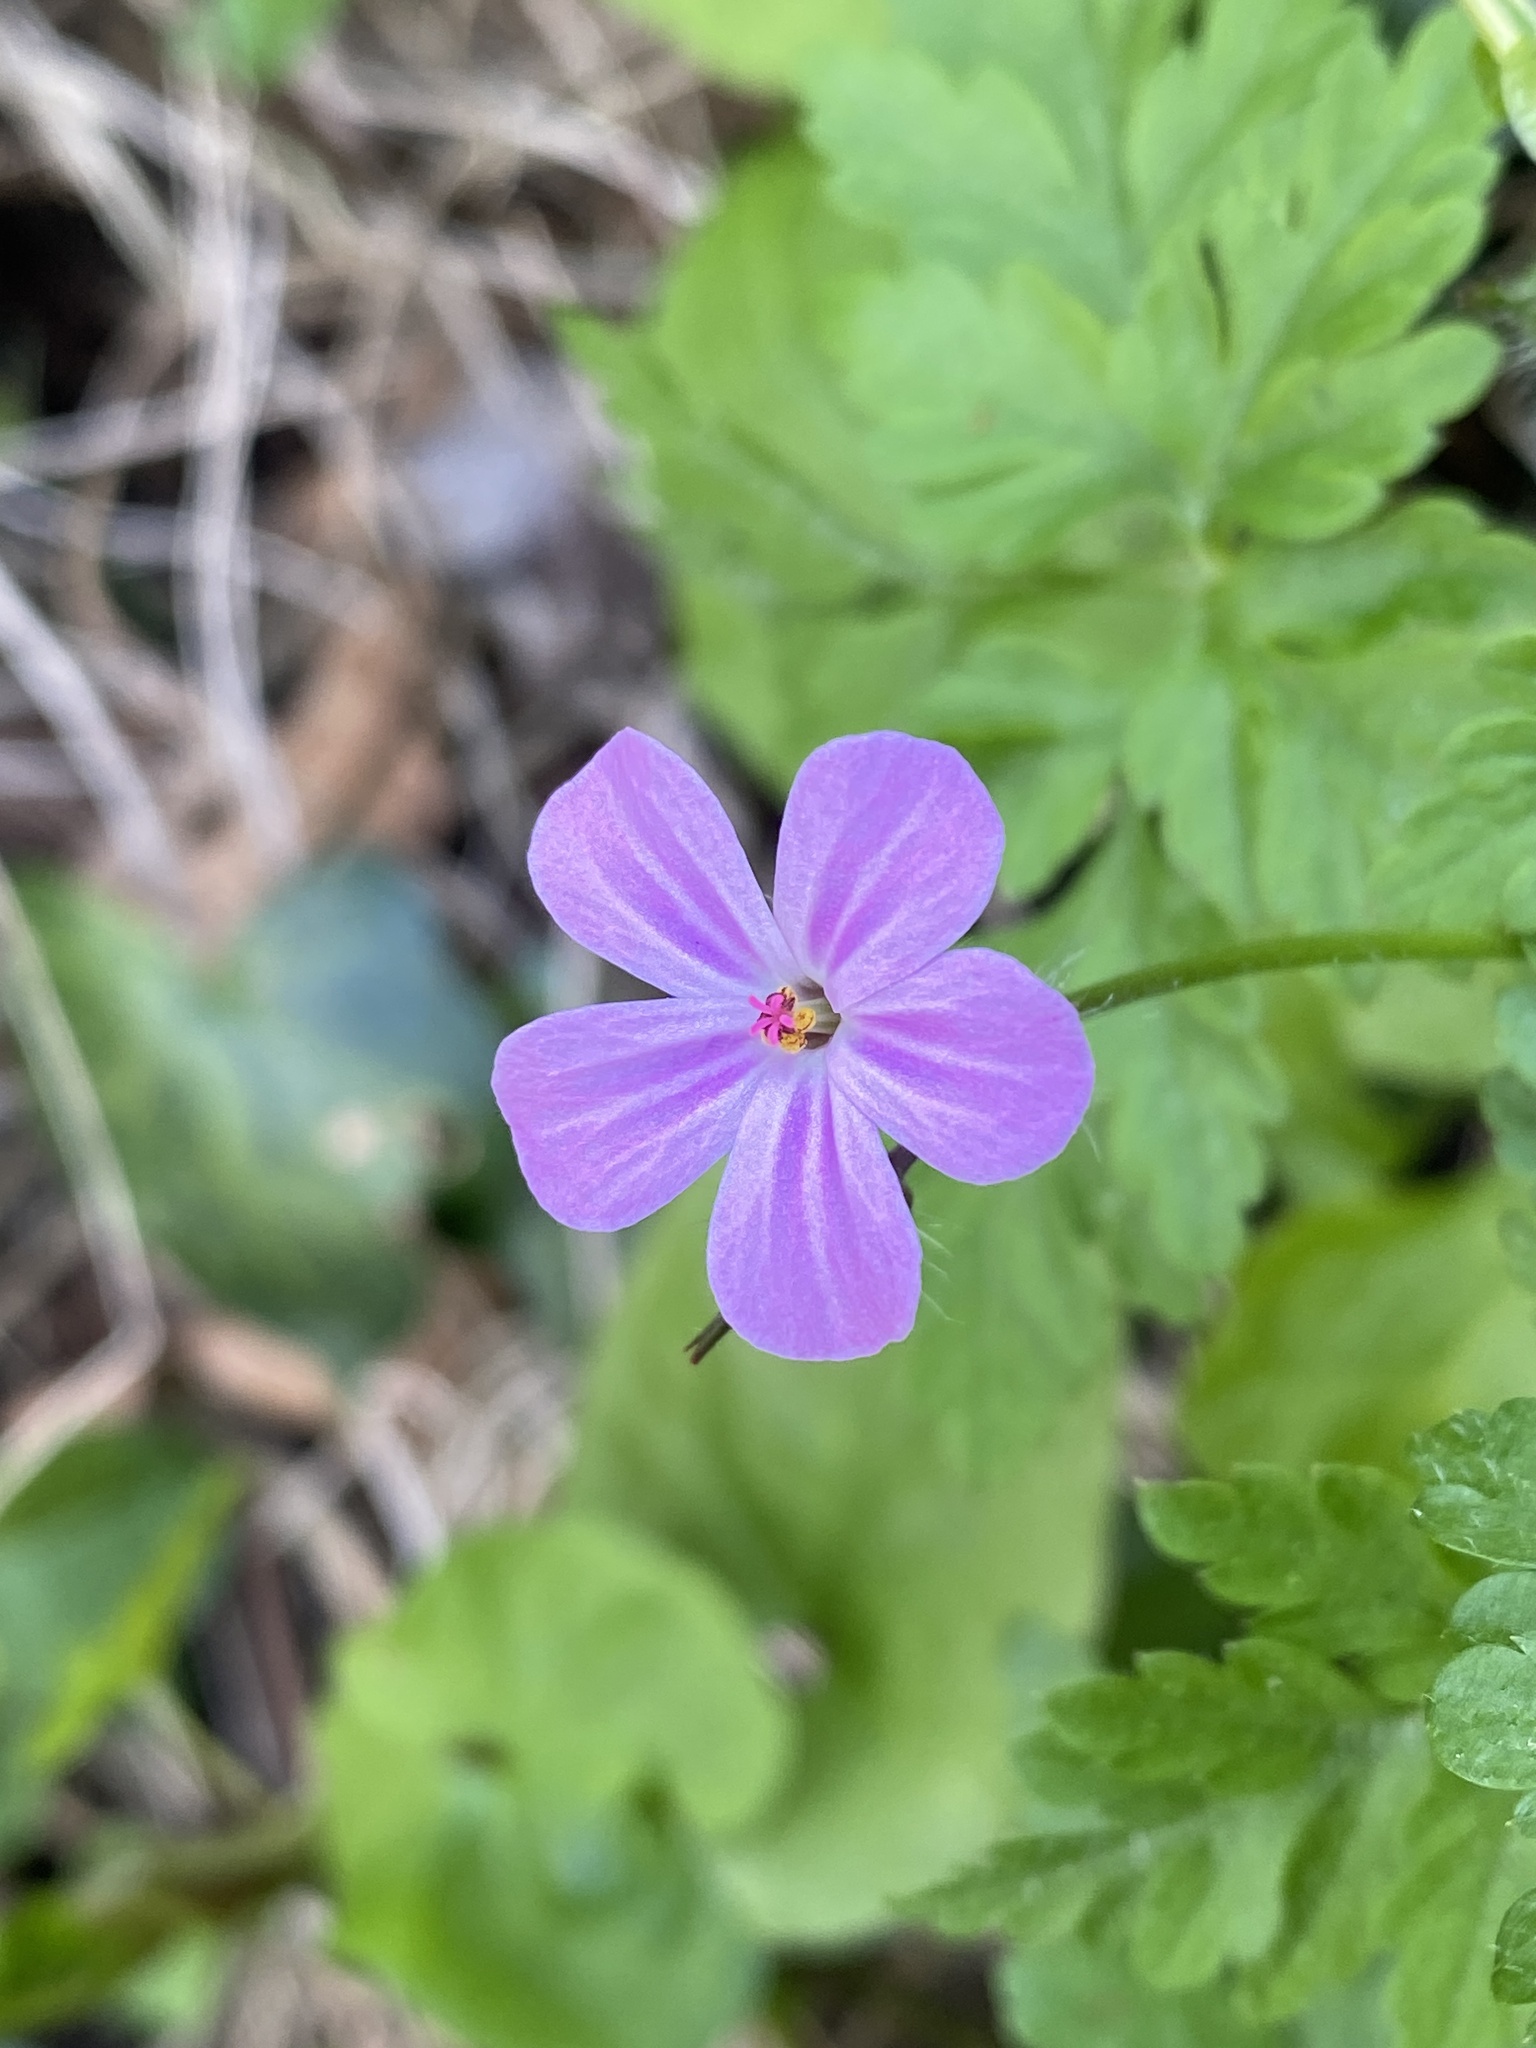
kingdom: Plantae
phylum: Tracheophyta
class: Magnoliopsida
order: Geraniales
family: Geraniaceae
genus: Geranium
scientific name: Geranium robertianum
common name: Herb-robert
